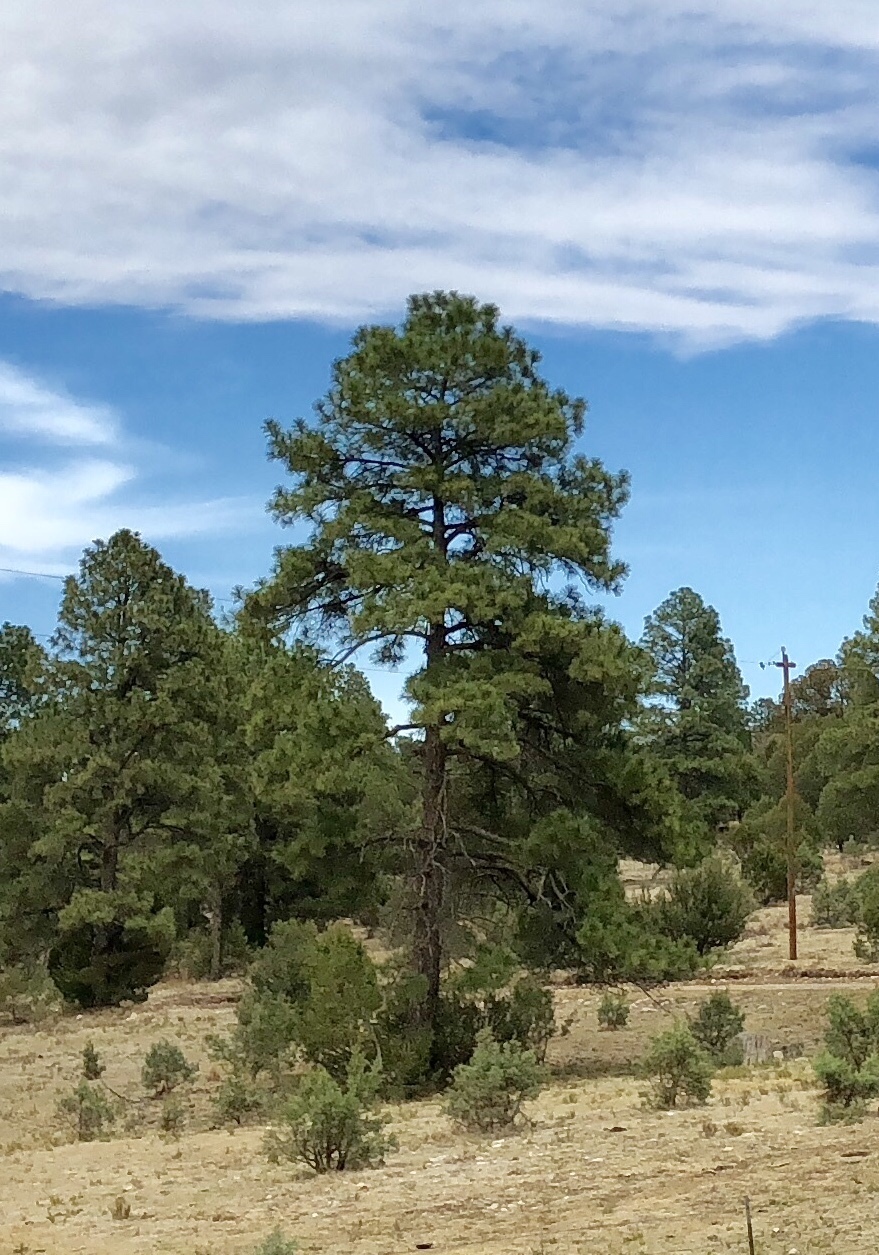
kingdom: Plantae
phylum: Tracheophyta
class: Pinopsida
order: Pinales
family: Pinaceae
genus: Pinus
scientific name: Pinus ponderosa
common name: Western yellow-pine
